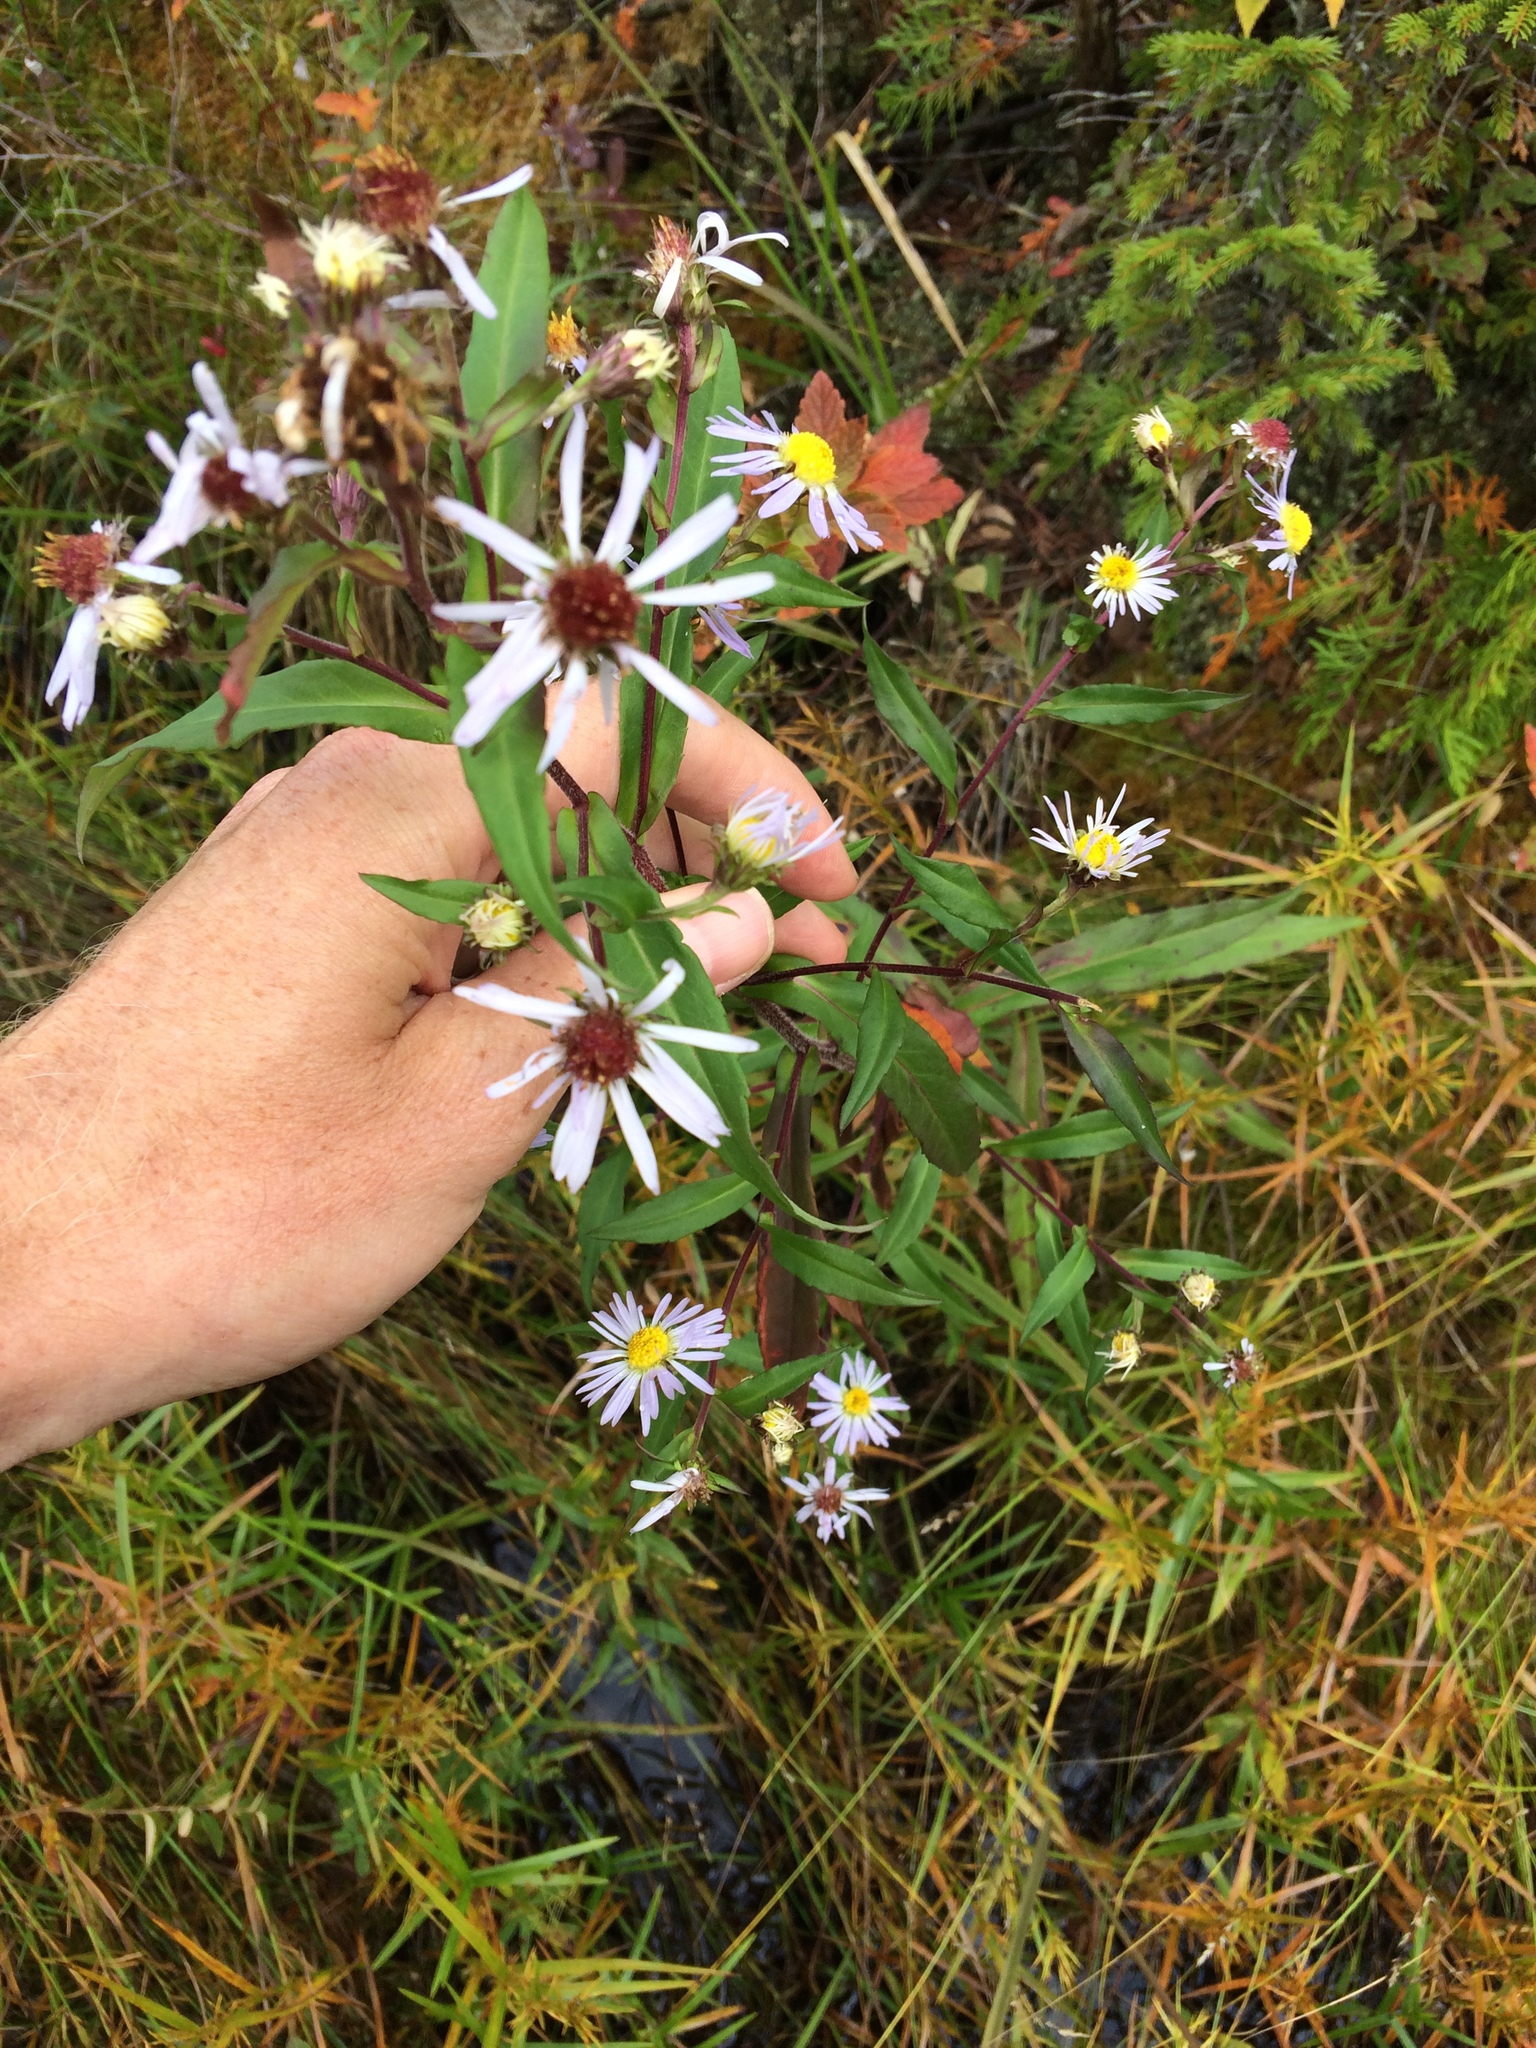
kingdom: Plantae
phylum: Tracheophyta
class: Magnoliopsida
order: Asterales
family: Asteraceae
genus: Symphyotrichum
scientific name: Symphyotrichum puniceum
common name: Bog aster
